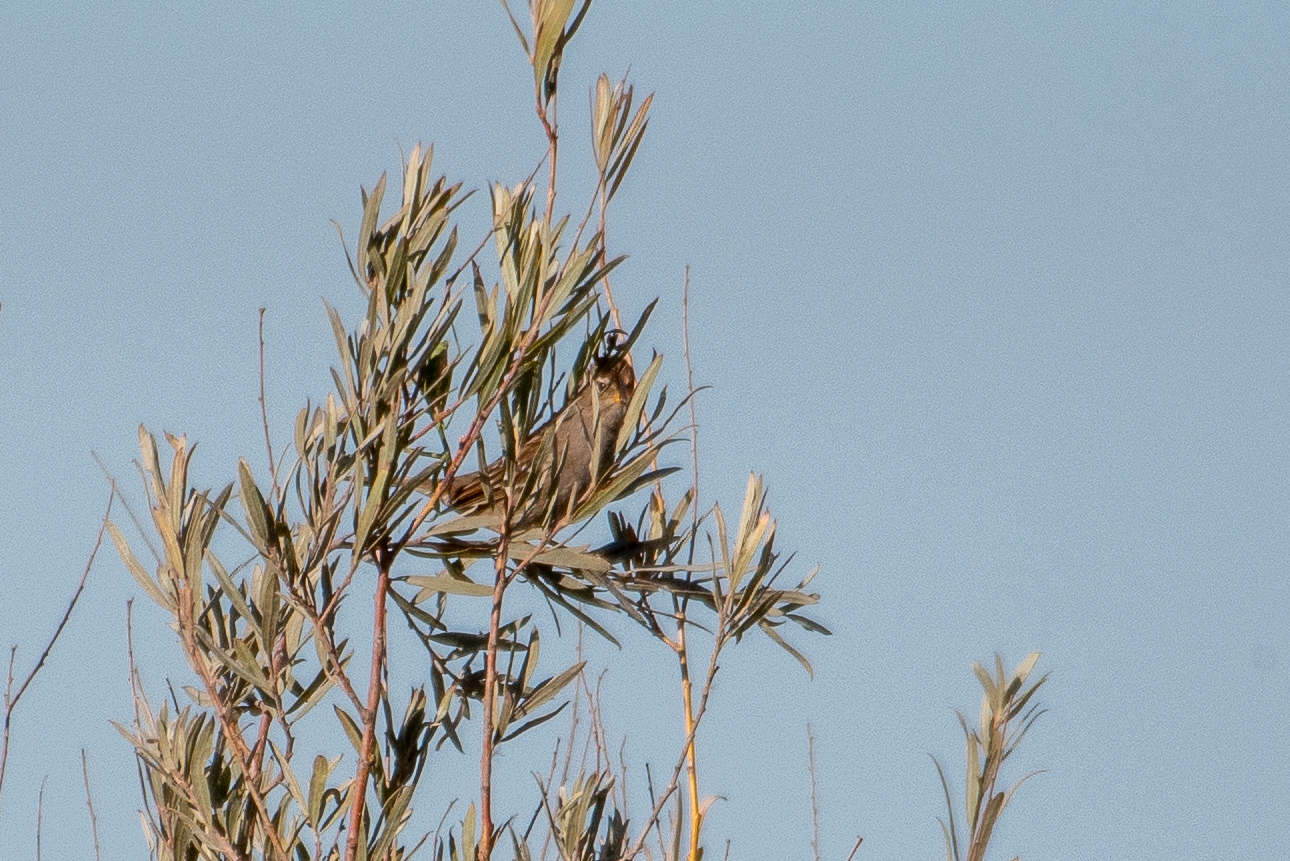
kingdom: Animalia
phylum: Chordata
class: Aves
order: Passeriformes
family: Passerellidae
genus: Zonotrichia
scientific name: Zonotrichia leucophrys
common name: White-crowned sparrow
